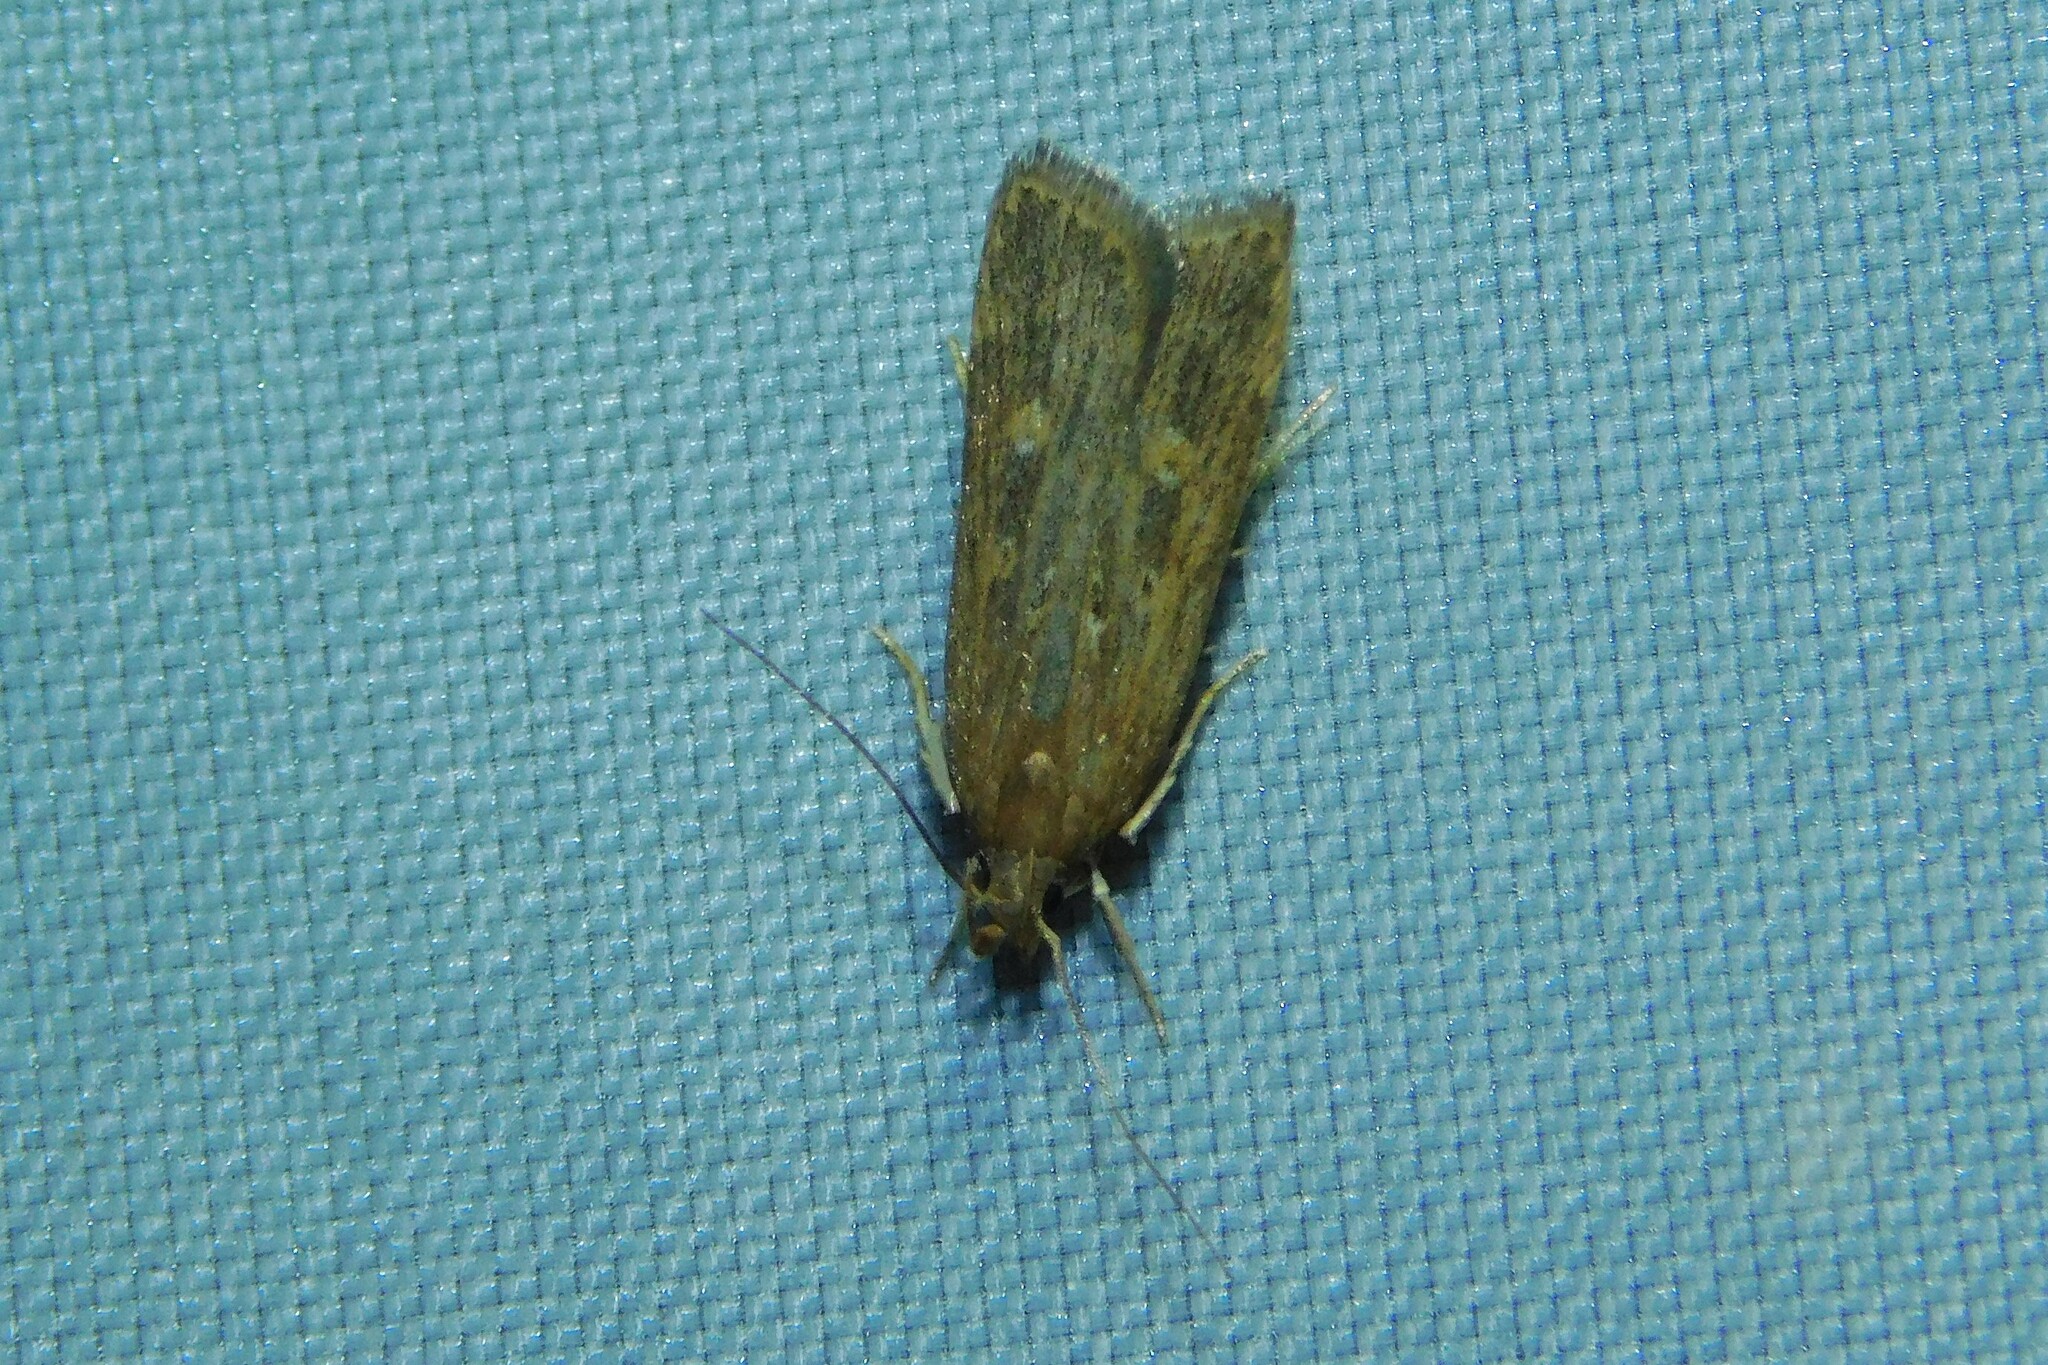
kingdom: Animalia
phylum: Arthropoda
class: Insecta
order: Lepidoptera
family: Gelechiidae
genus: Helcystogramma
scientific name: Helcystogramma triannulella
